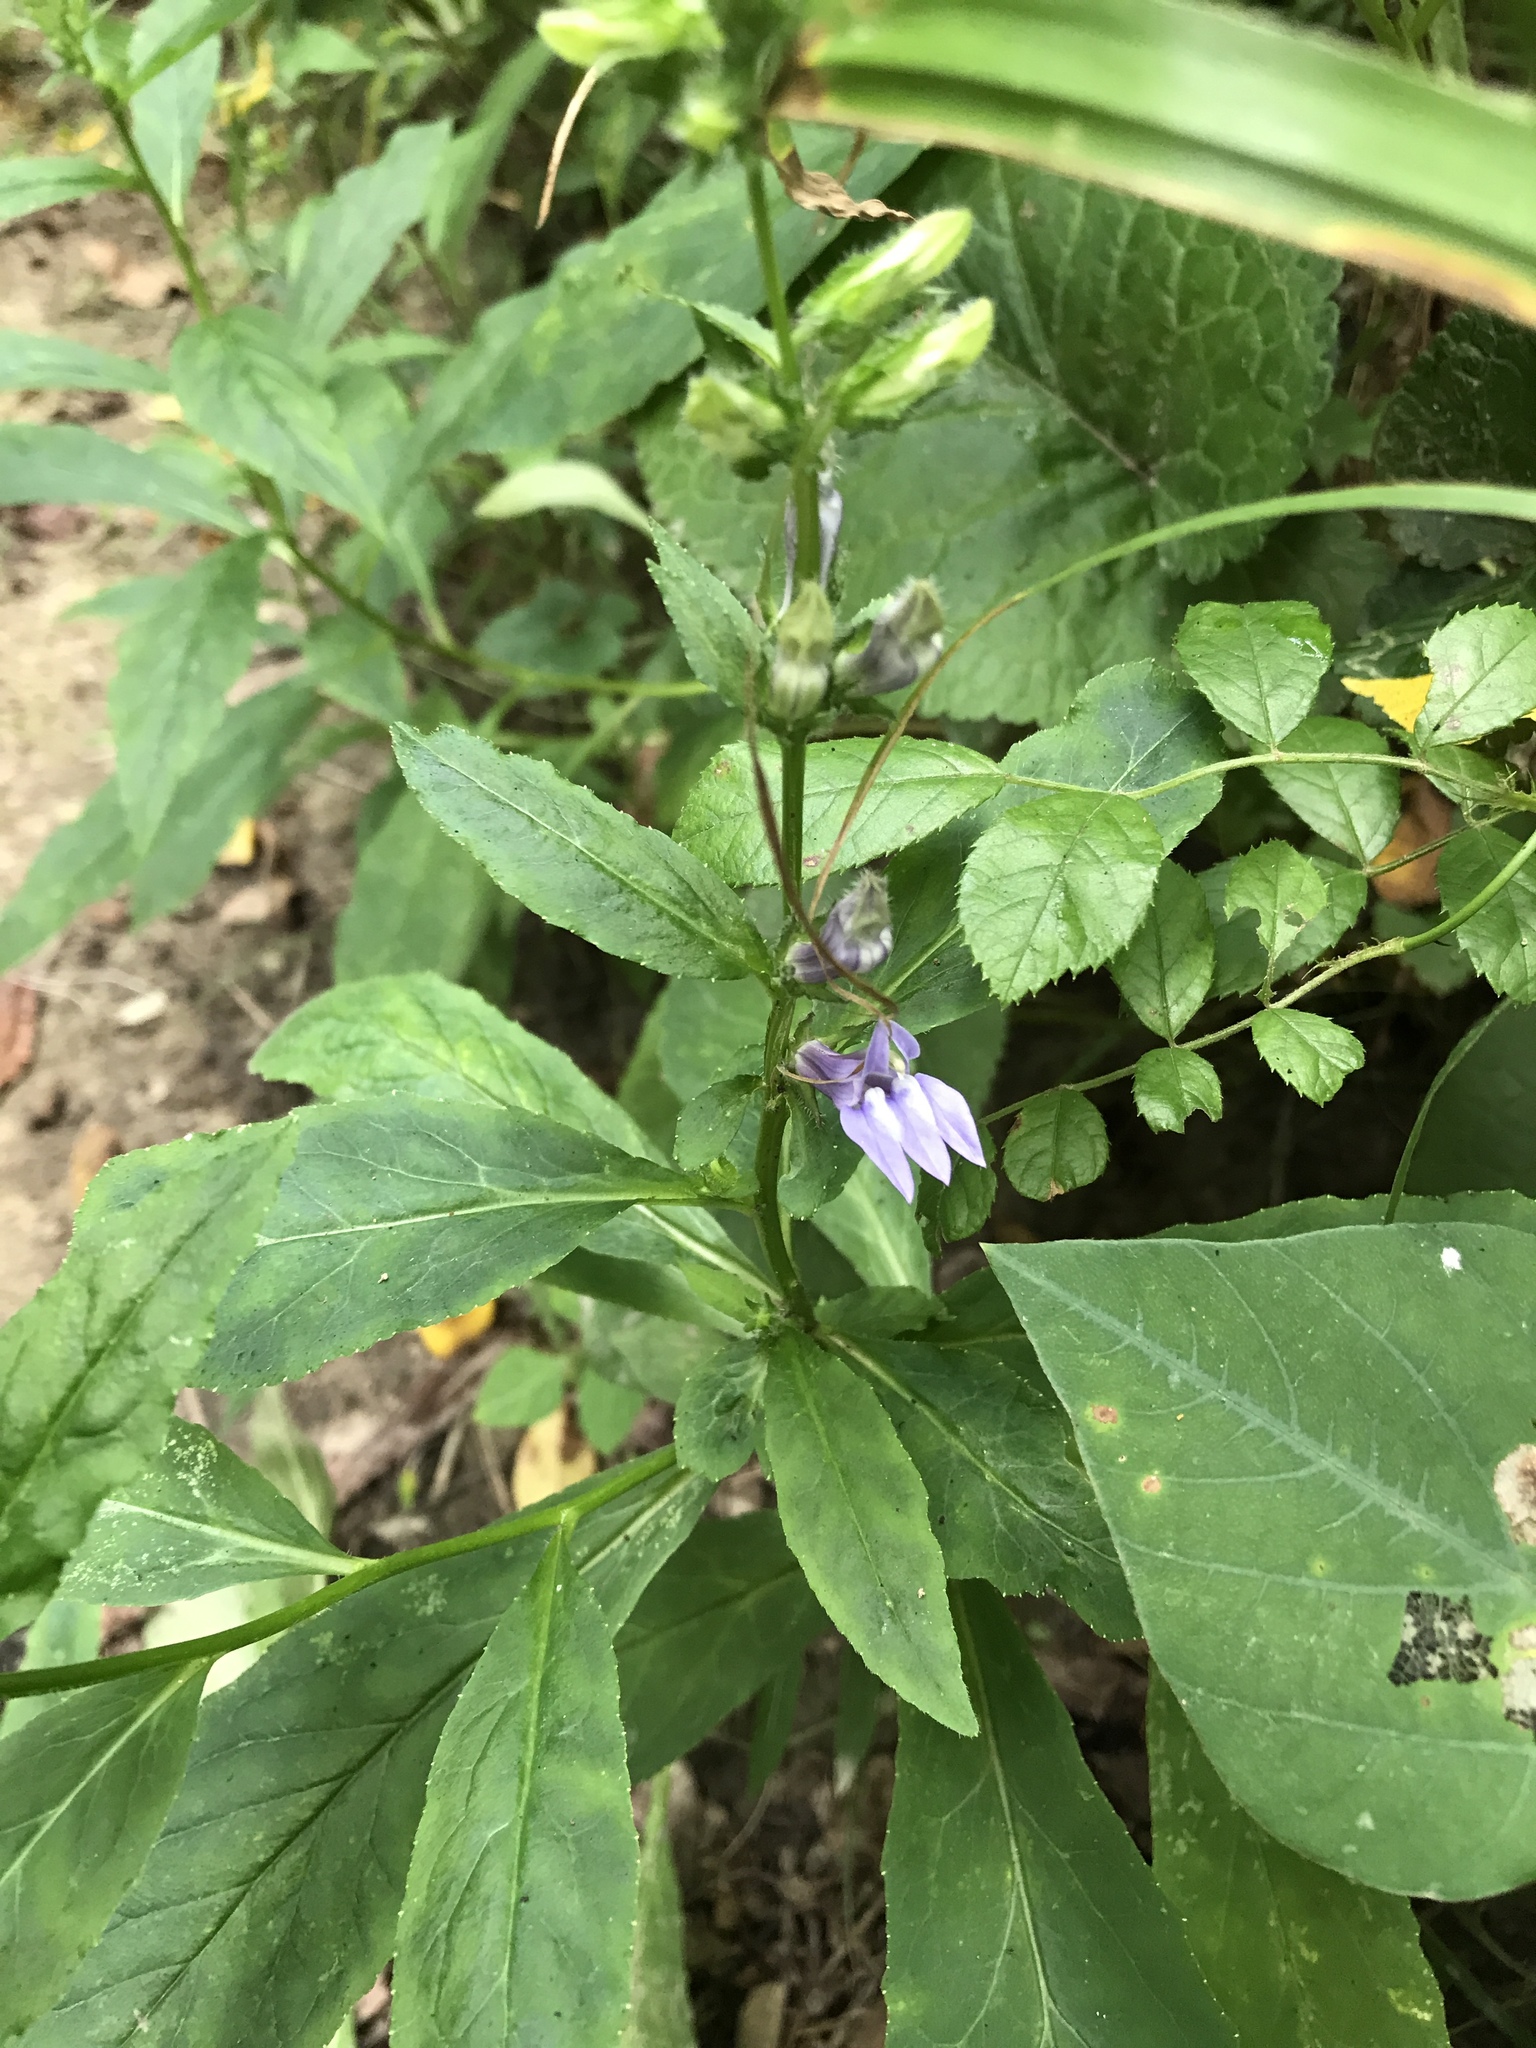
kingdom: Plantae
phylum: Tracheophyta
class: Magnoliopsida
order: Asterales
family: Campanulaceae
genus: Lobelia
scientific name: Lobelia siphilitica
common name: Great lobelia
